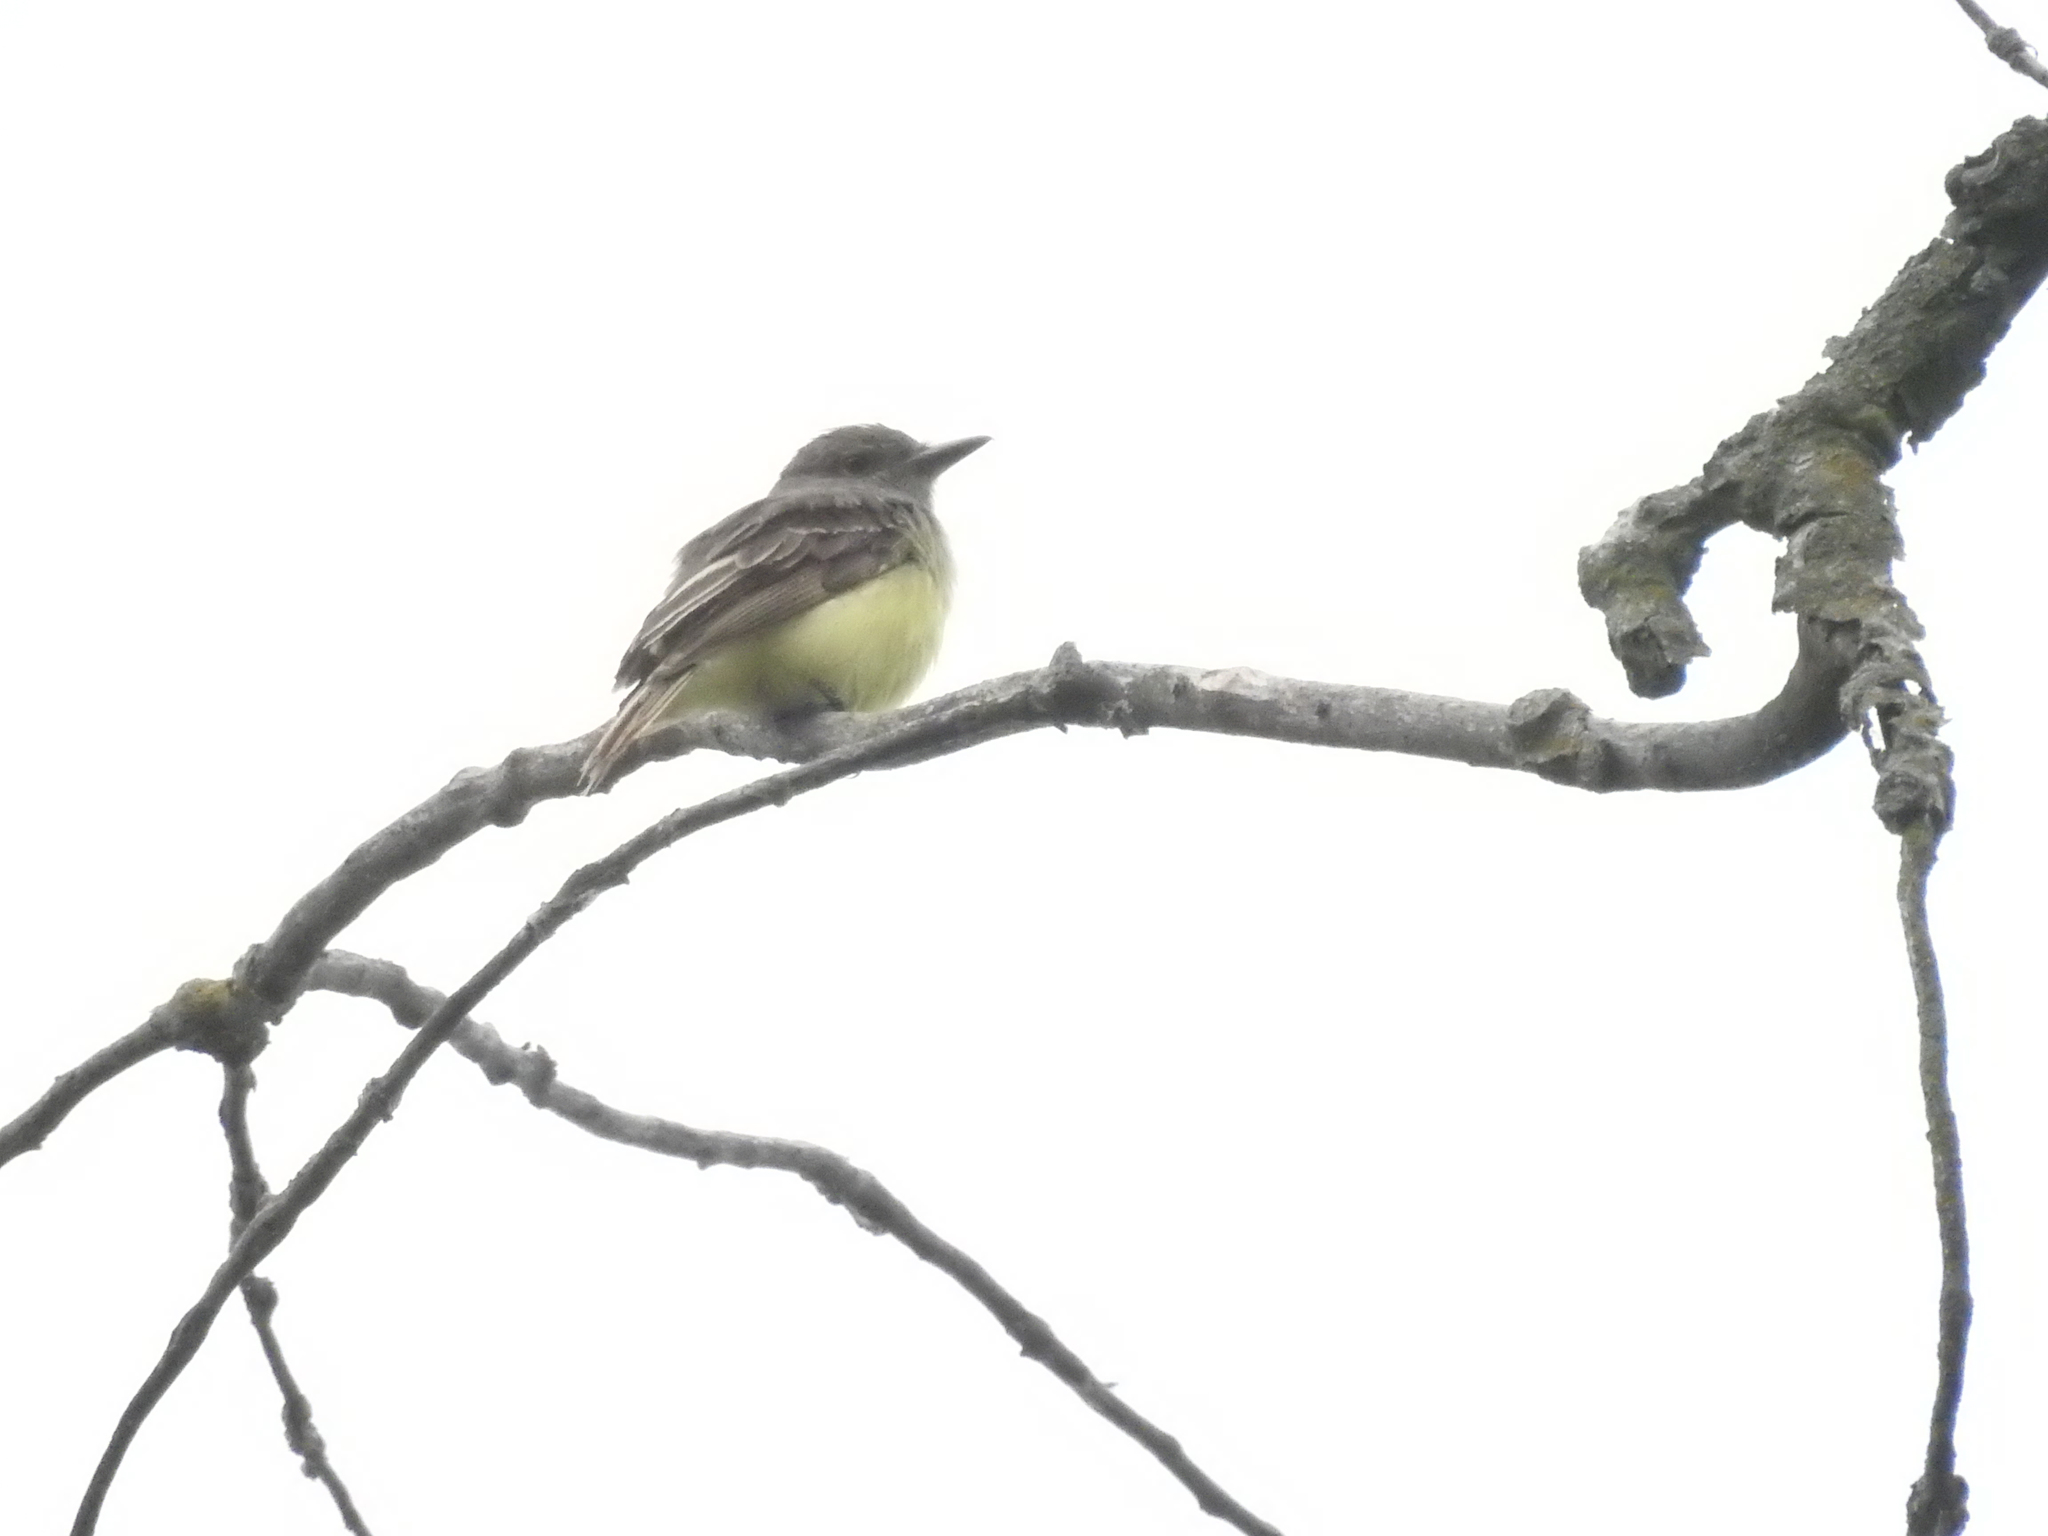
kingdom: Animalia
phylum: Chordata
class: Aves
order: Passeriformes
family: Tyrannidae
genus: Myiarchus
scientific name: Myiarchus crinitus
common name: Great crested flycatcher
